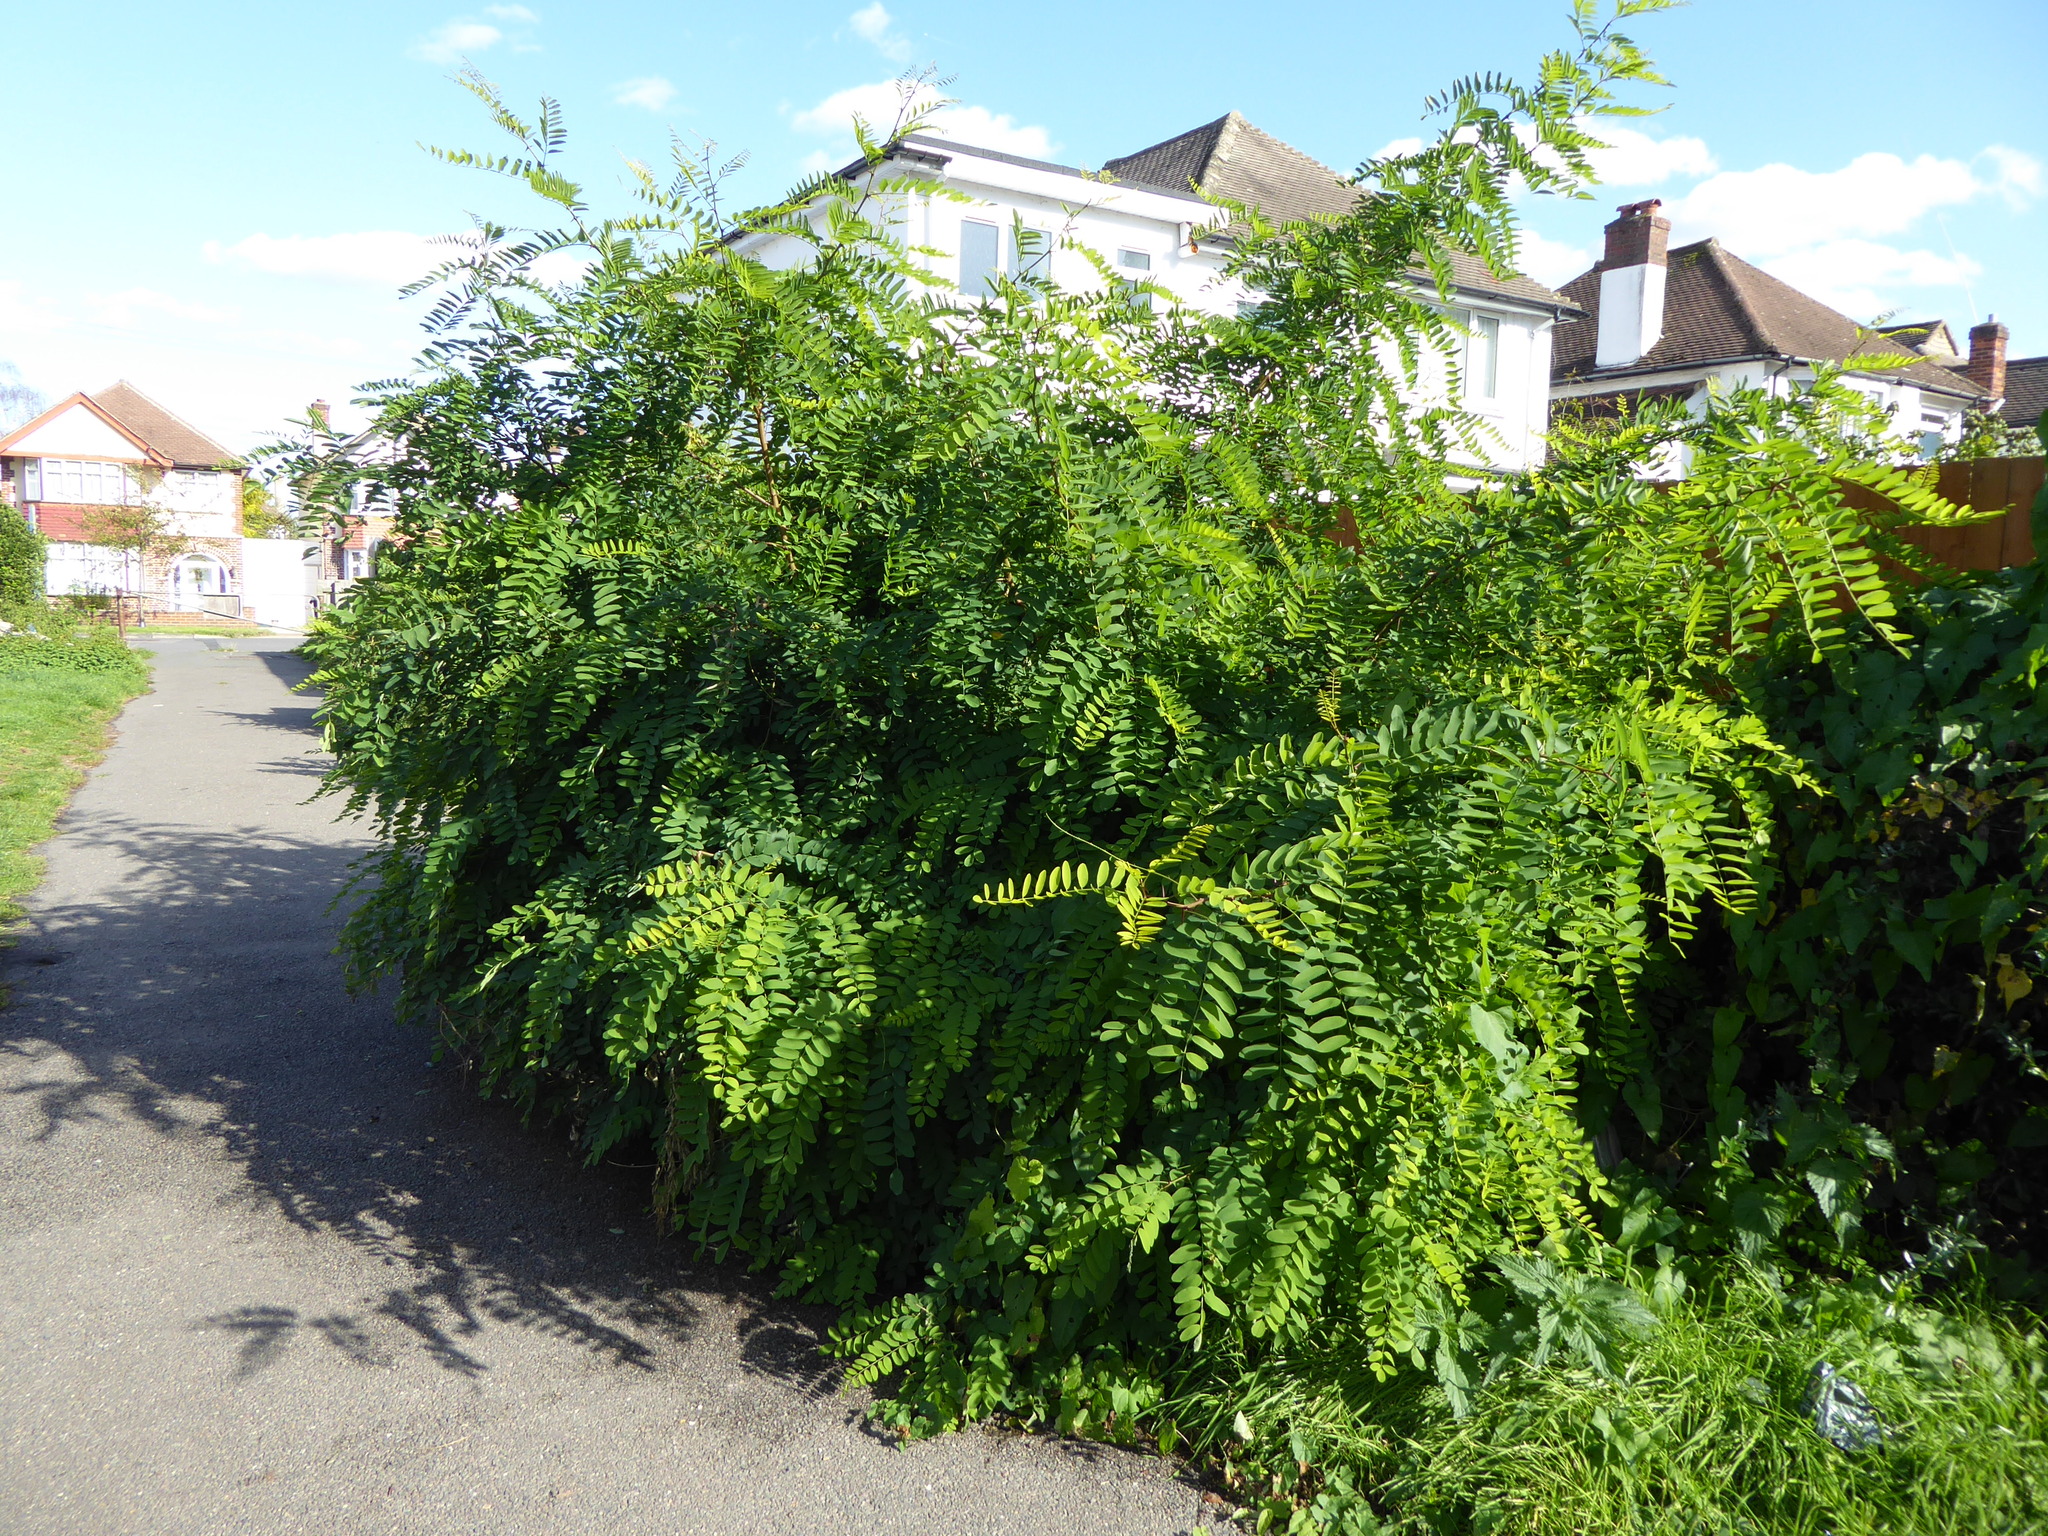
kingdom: Plantae
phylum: Tracheophyta
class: Magnoliopsida
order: Fabales
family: Fabaceae
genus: Robinia
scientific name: Robinia pseudoacacia
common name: Black locust
